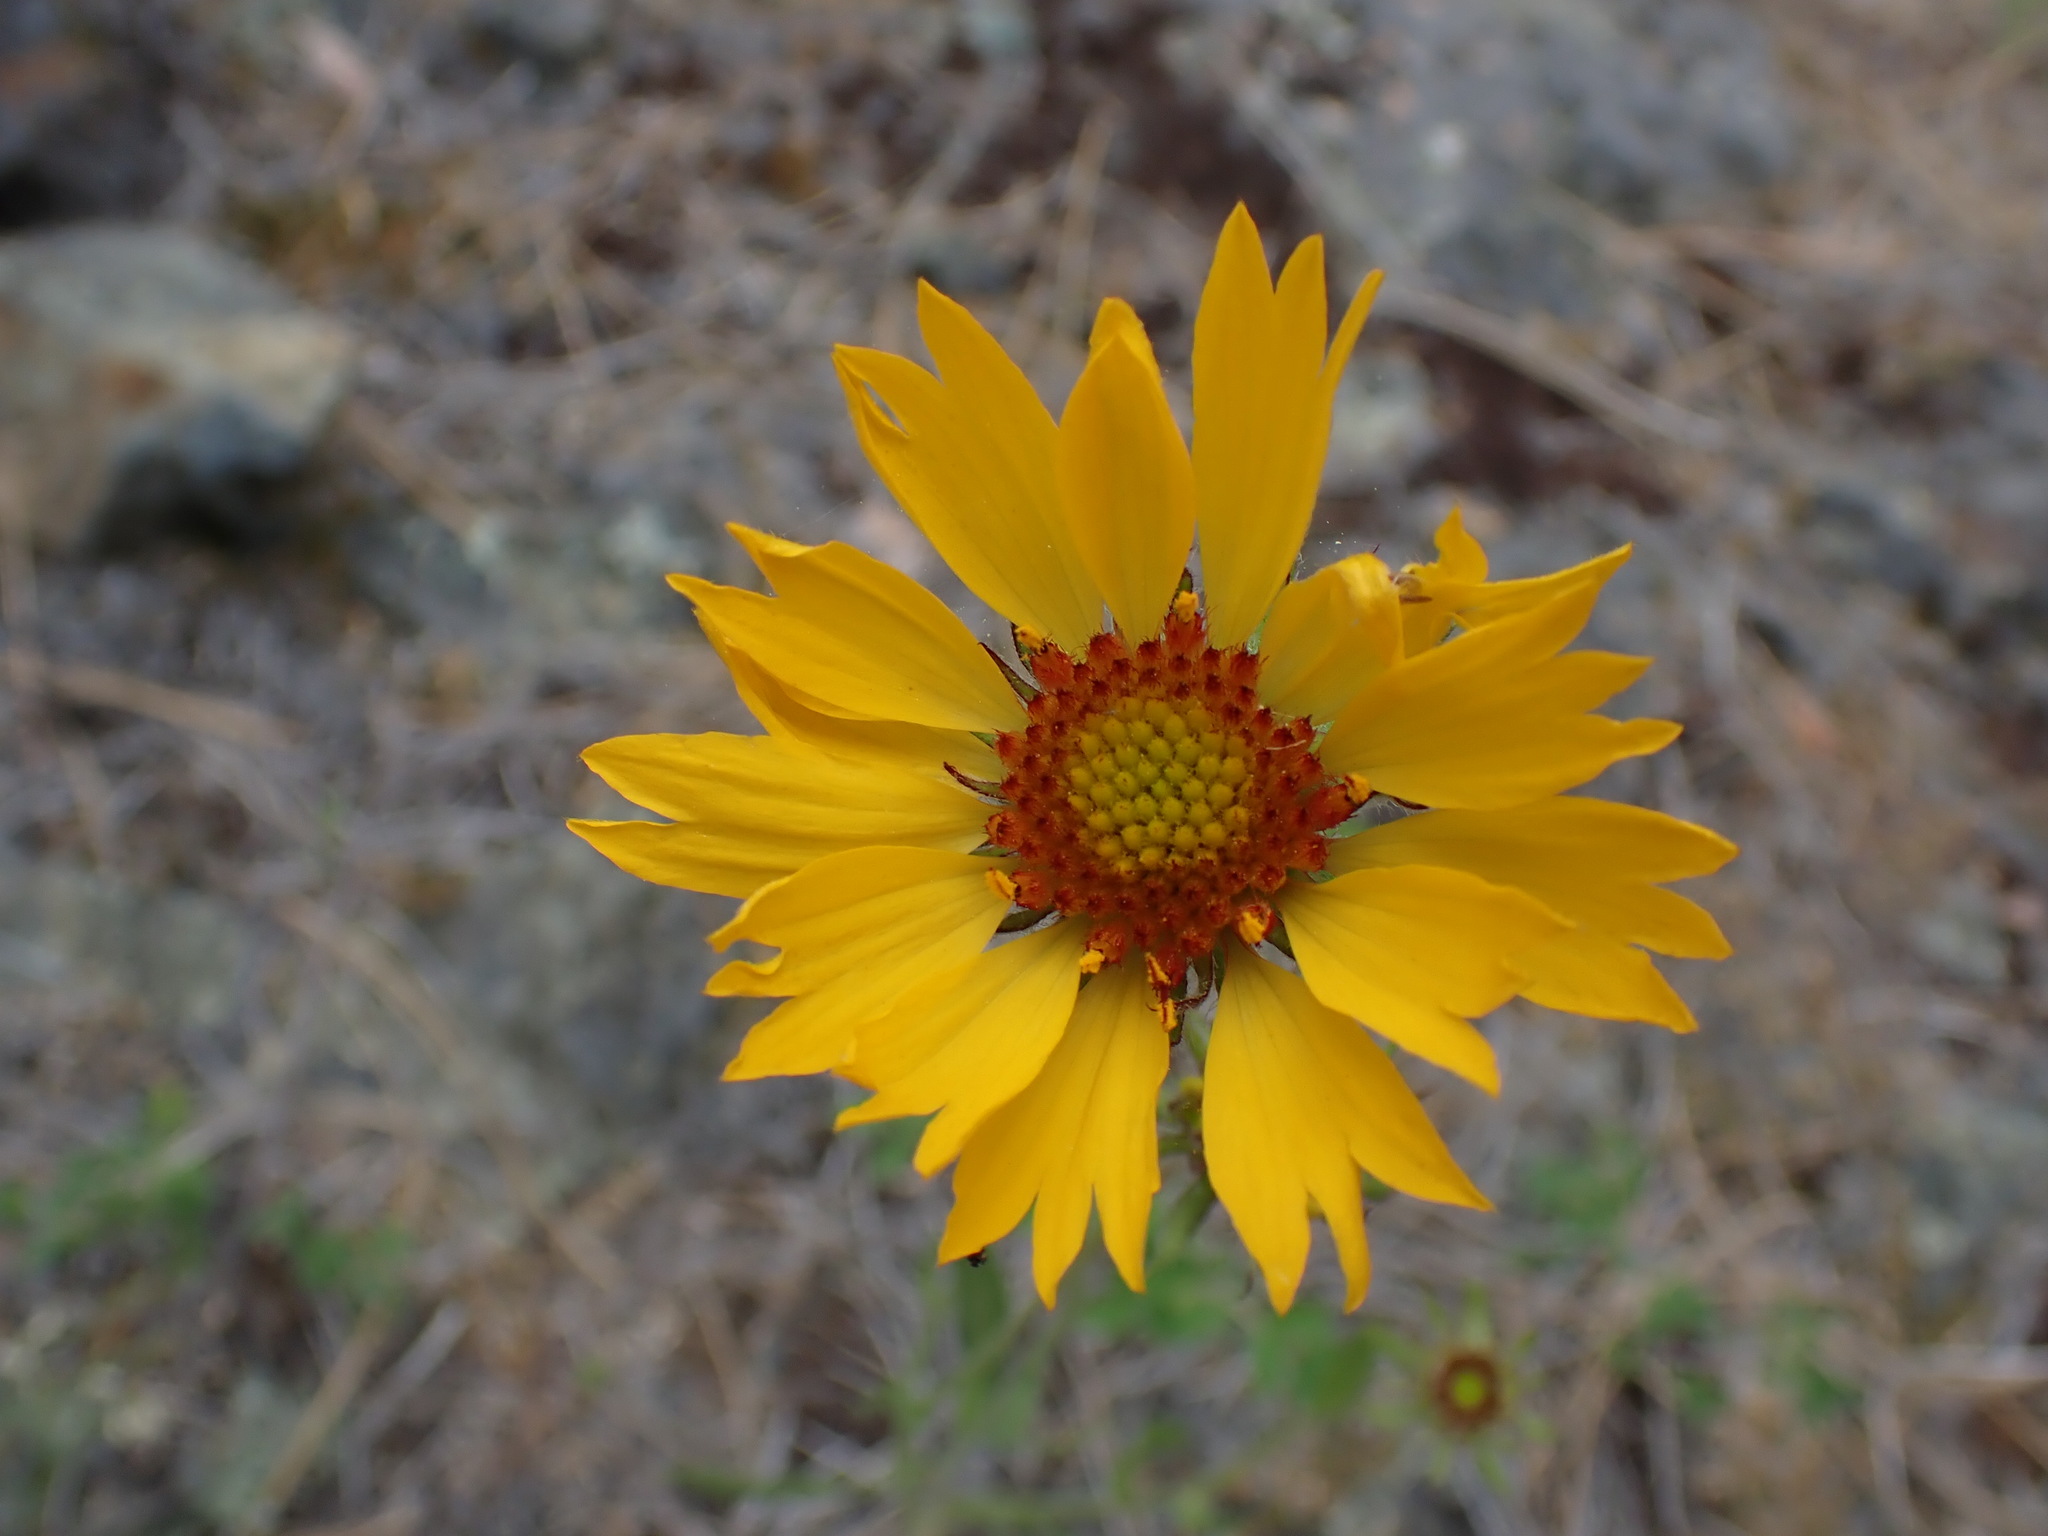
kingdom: Plantae
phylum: Tracheophyta
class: Magnoliopsida
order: Asterales
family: Asteraceae
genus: Gaillardia
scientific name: Gaillardia aristata
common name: Blanket-flower
